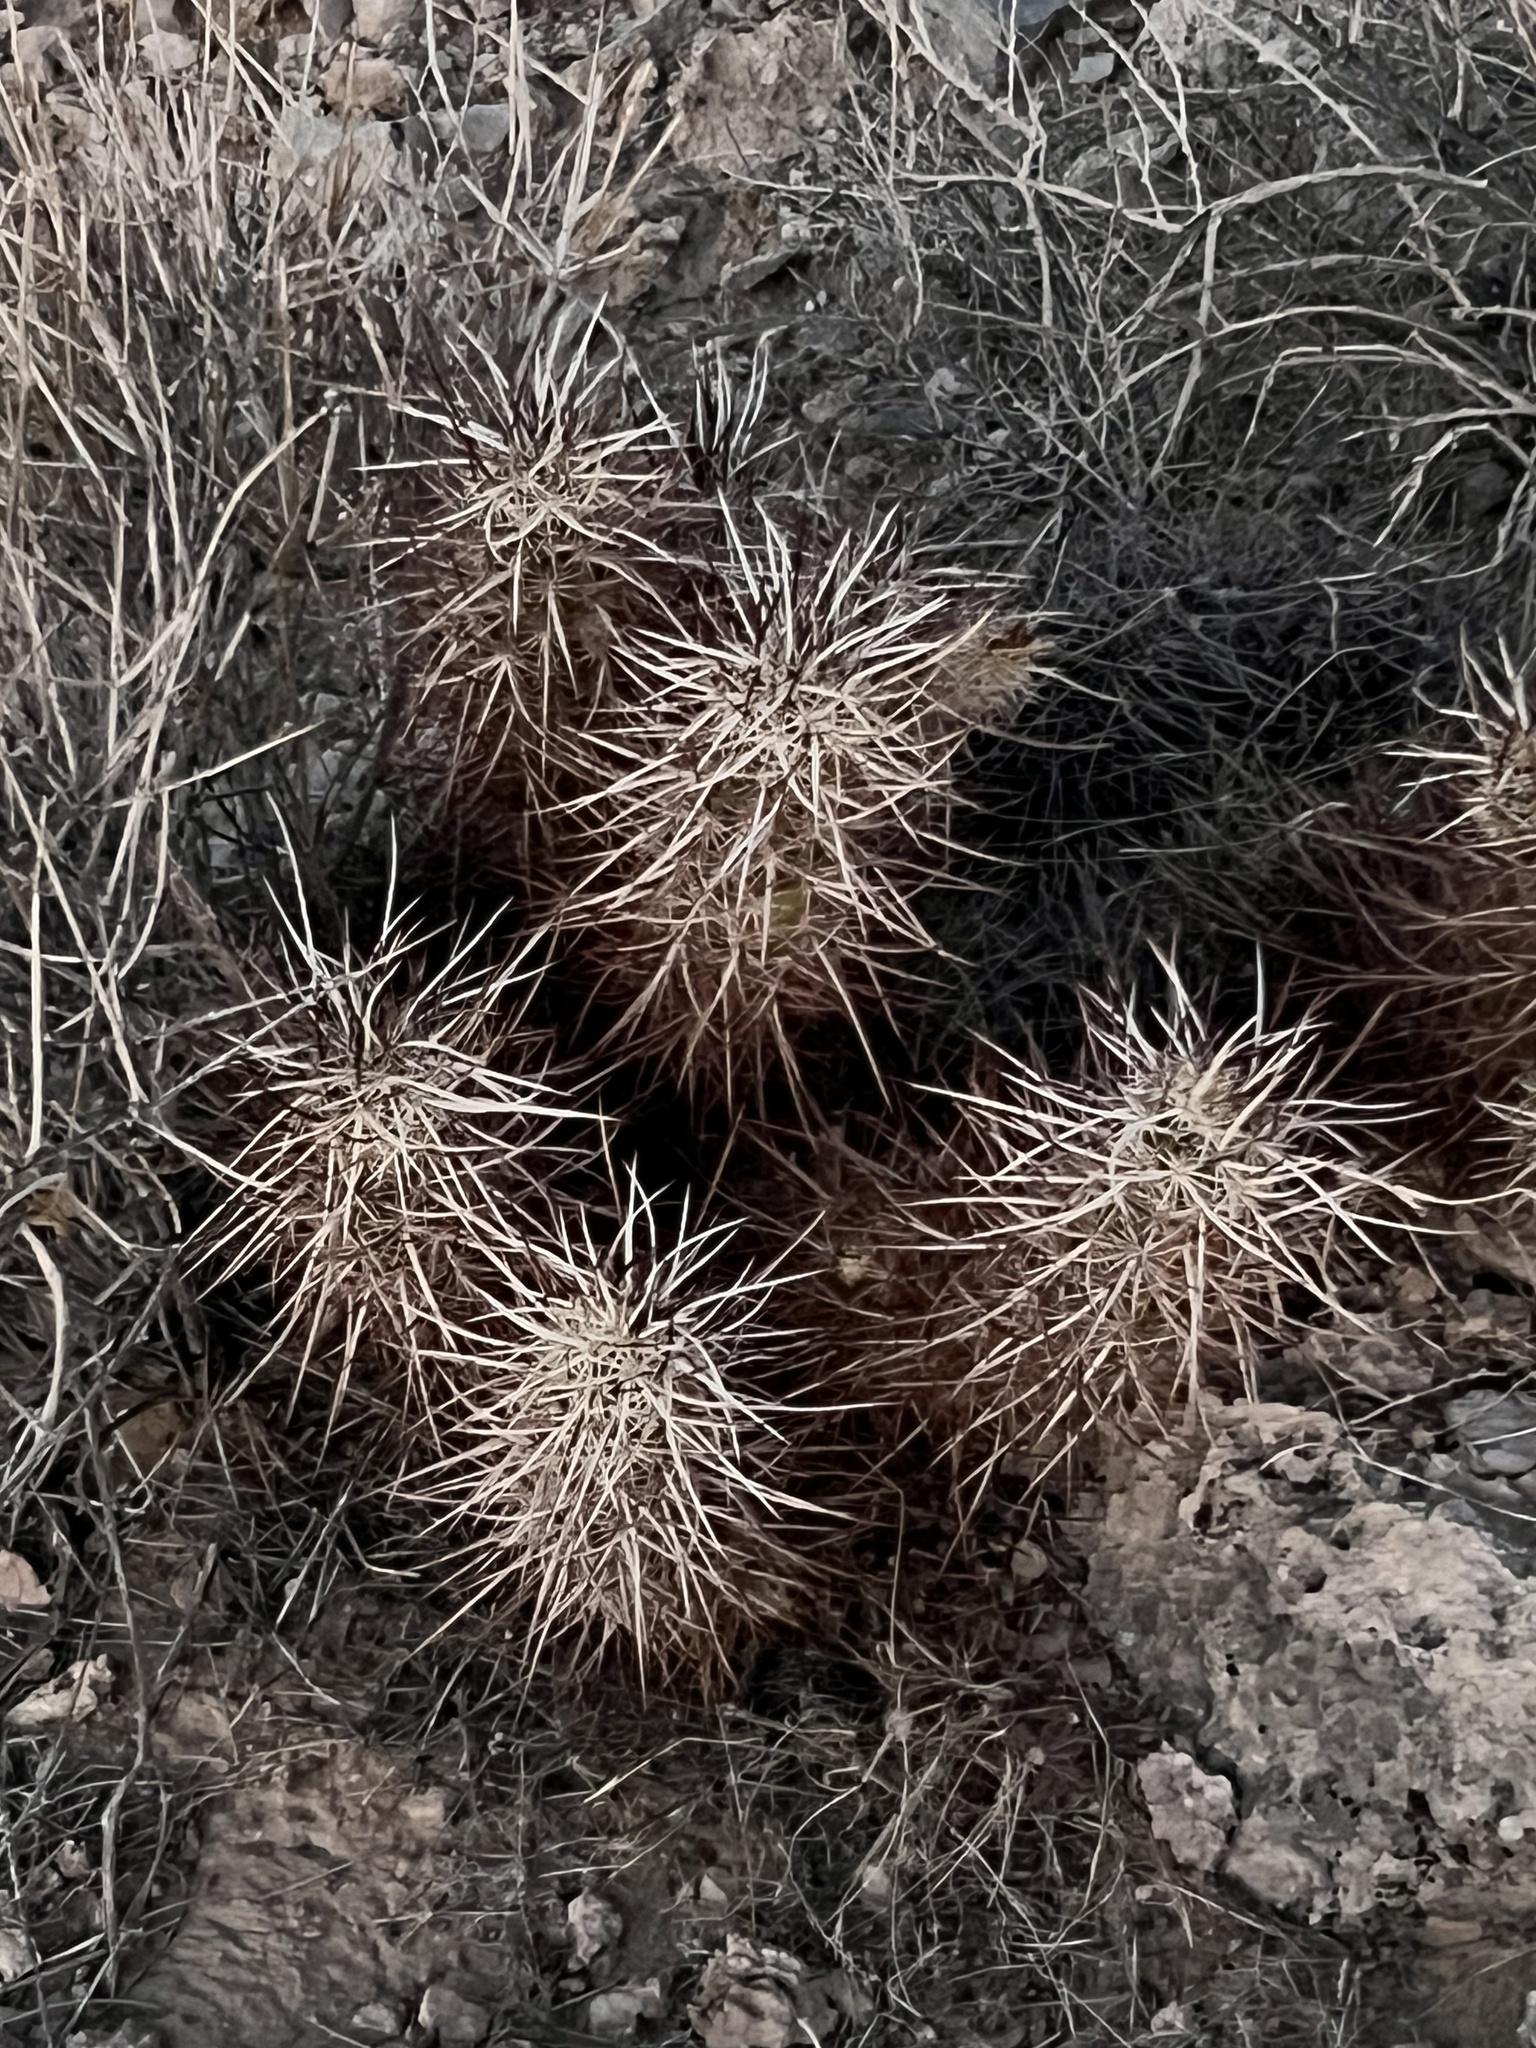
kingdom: Plantae
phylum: Tracheophyta
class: Magnoliopsida
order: Caryophyllales
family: Cactaceae
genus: Echinocereus
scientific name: Echinocereus engelmannii
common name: Engelmann's hedgehog cactus
